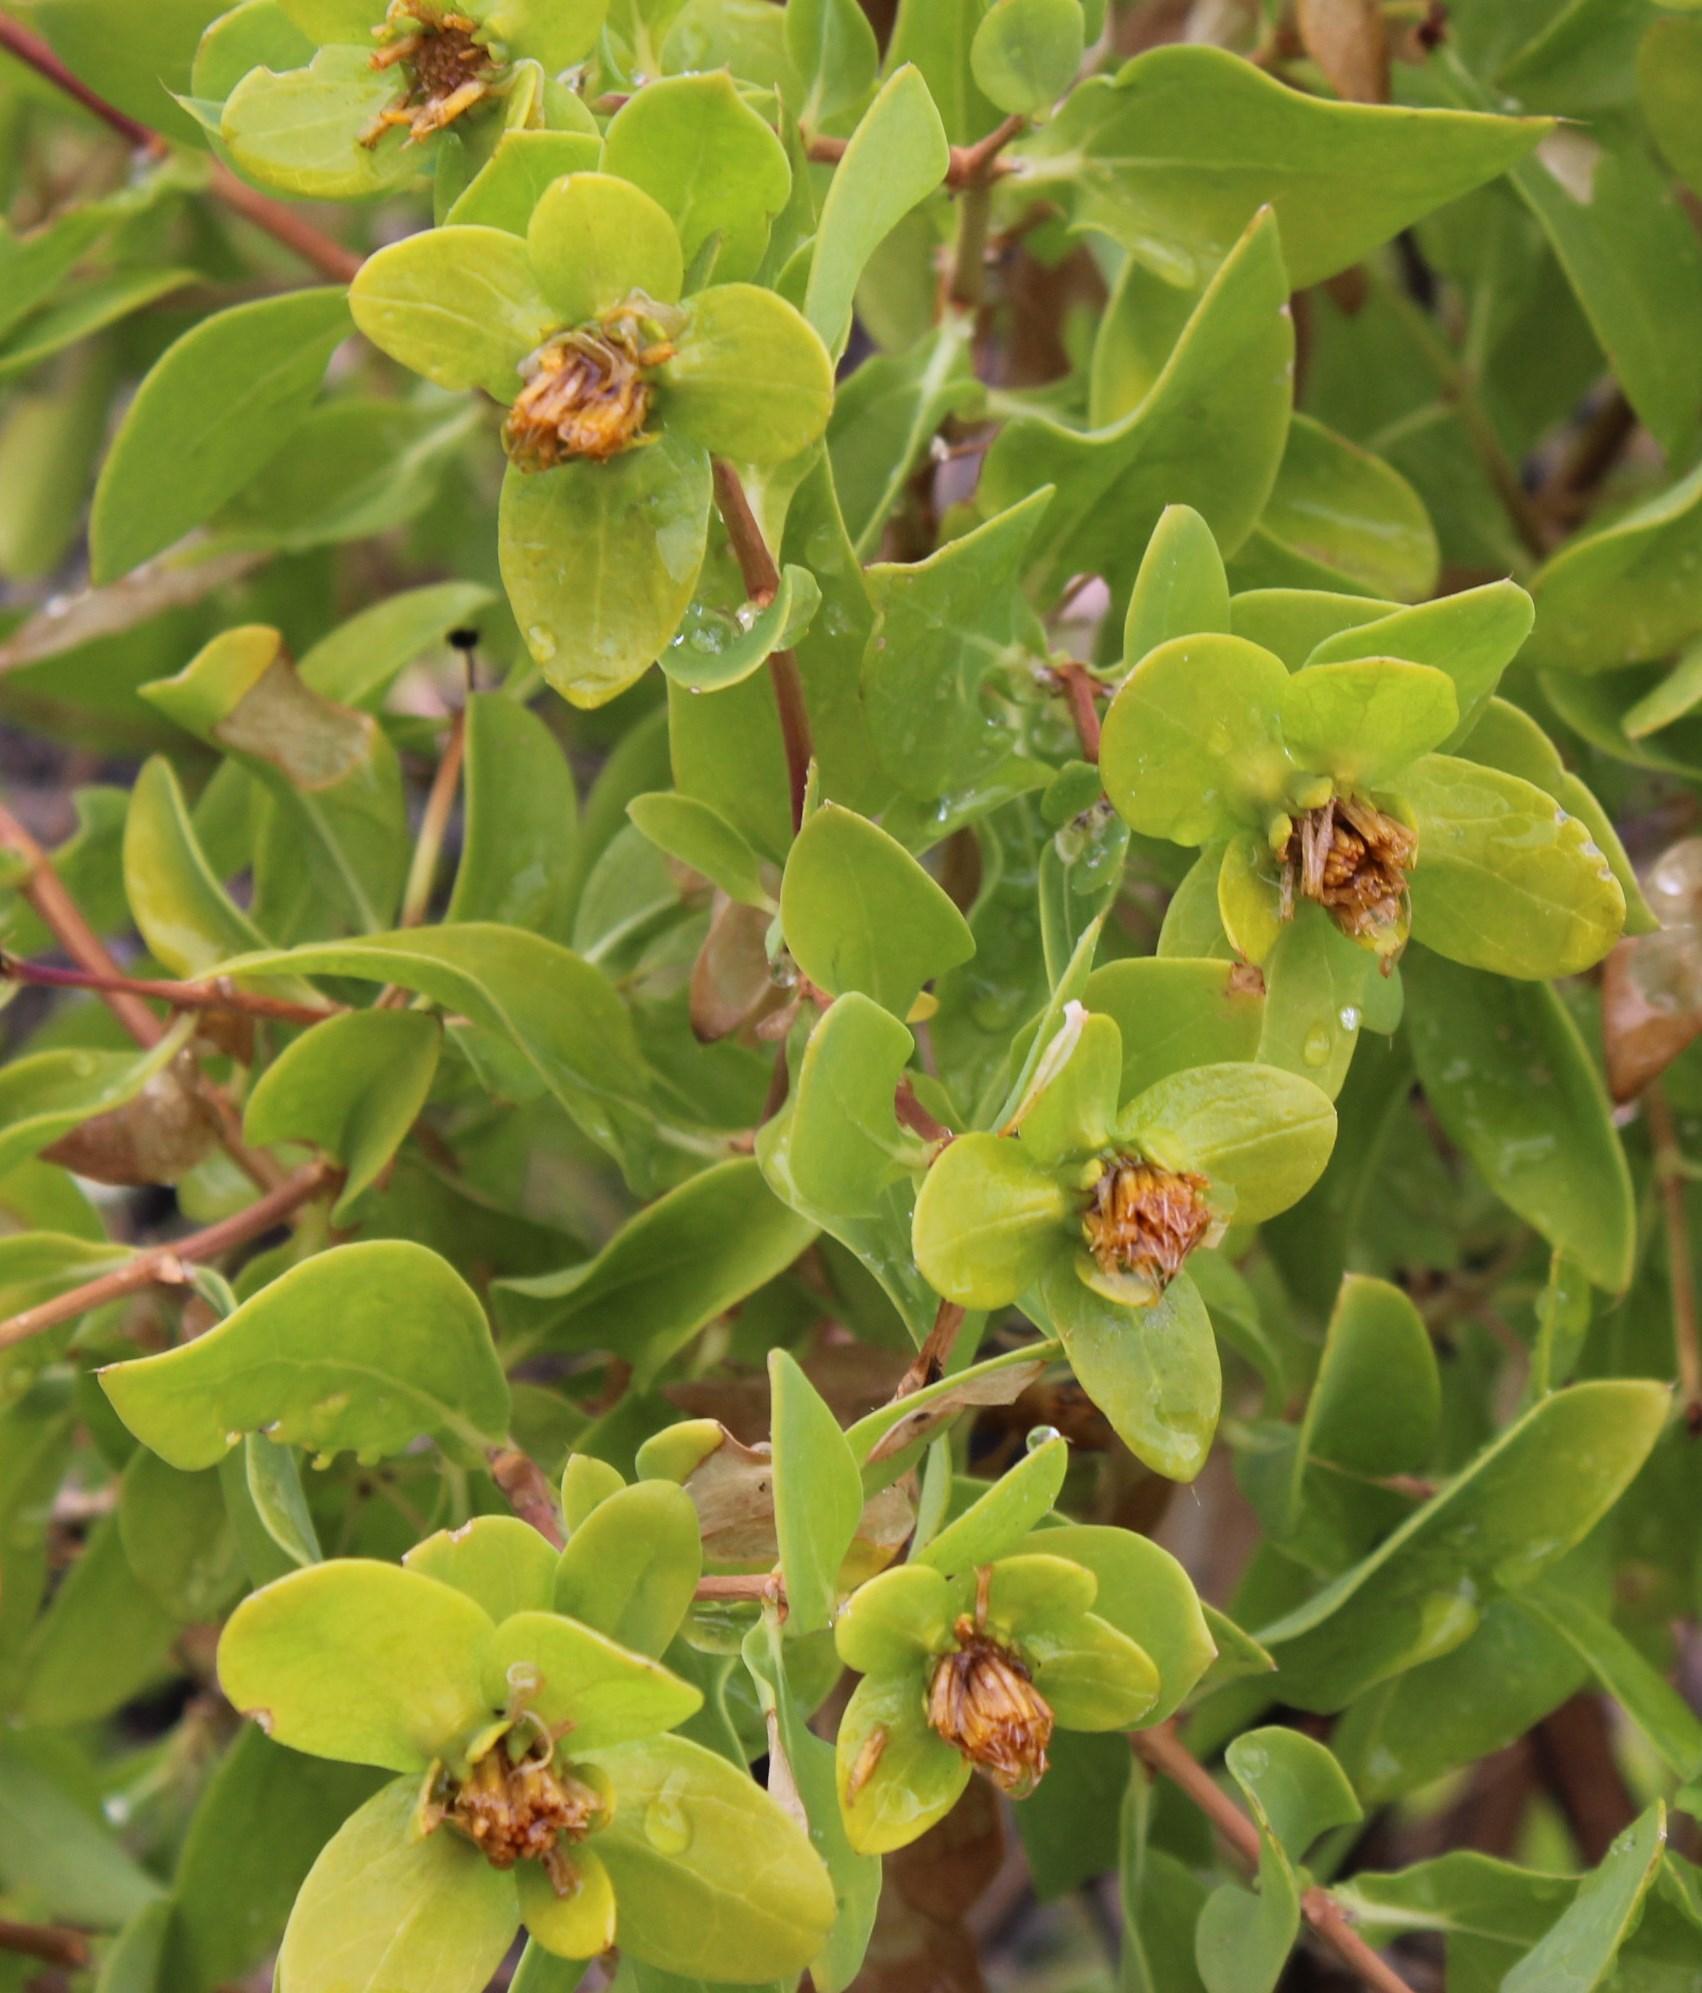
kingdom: Plantae
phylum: Tracheophyta
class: Magnoliopsida
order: Asterales
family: Asteraceae
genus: Didelta
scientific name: Didelta spinosa
